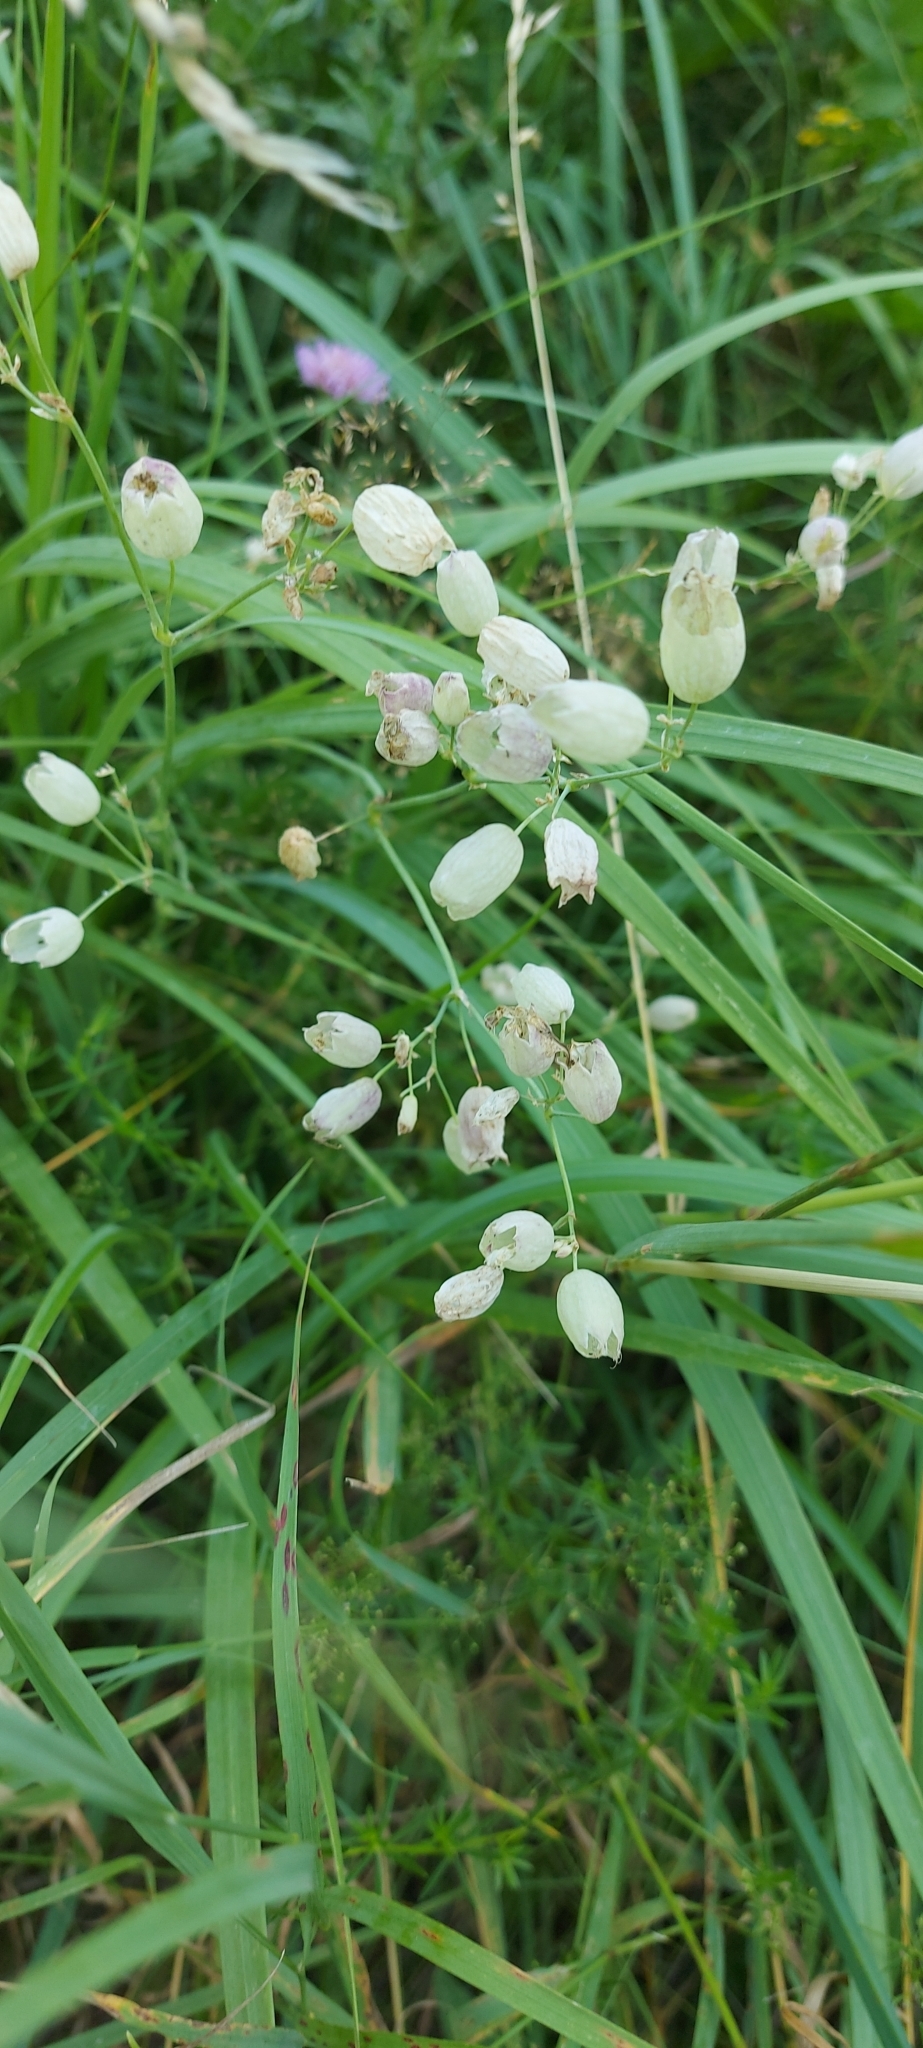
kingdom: Plantae
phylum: Tracheophyta
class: Magnoliopsida
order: Caryophyllales
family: Caryophyllaceae
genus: Silene
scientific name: Silene vulgaris
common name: Bladder campion
